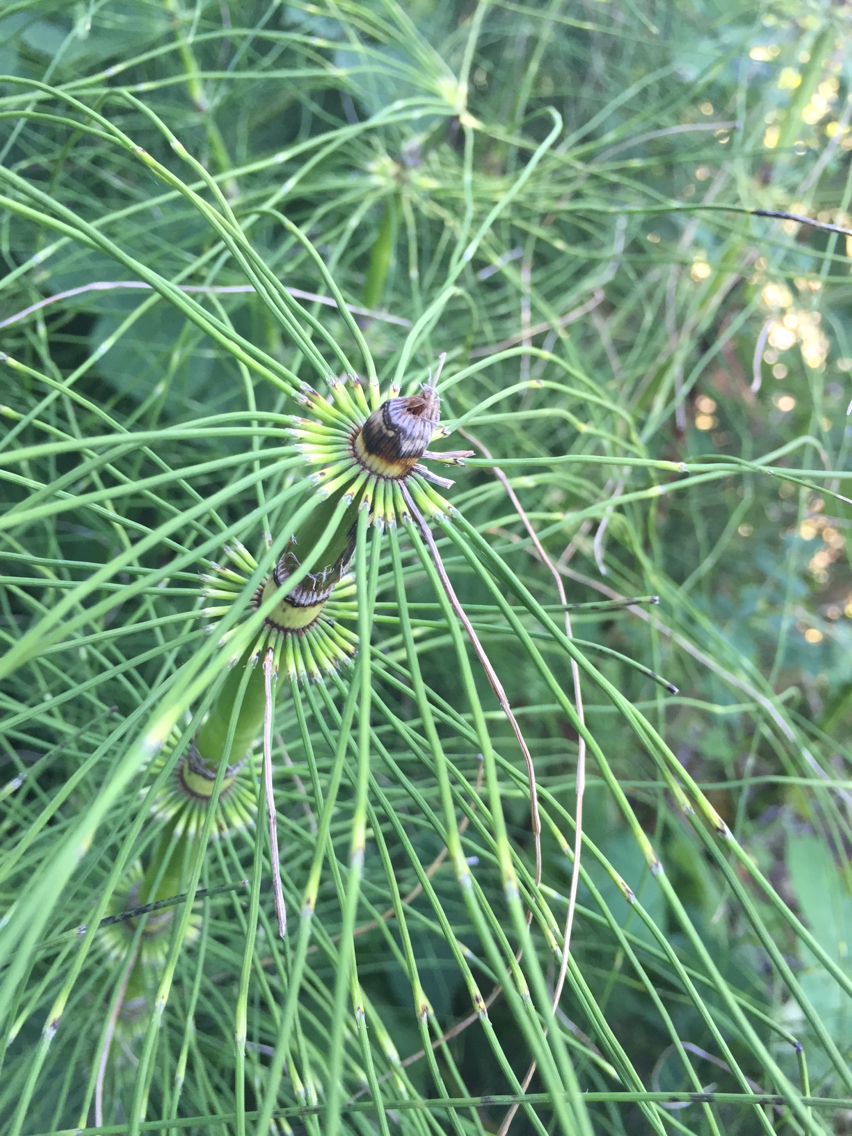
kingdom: Plantae
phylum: Tracheophyta
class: Polypodiopsida
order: Equisetales
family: Equisetaceae
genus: Equisetum
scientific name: Equisetum braunii
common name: Braun's horsetail
